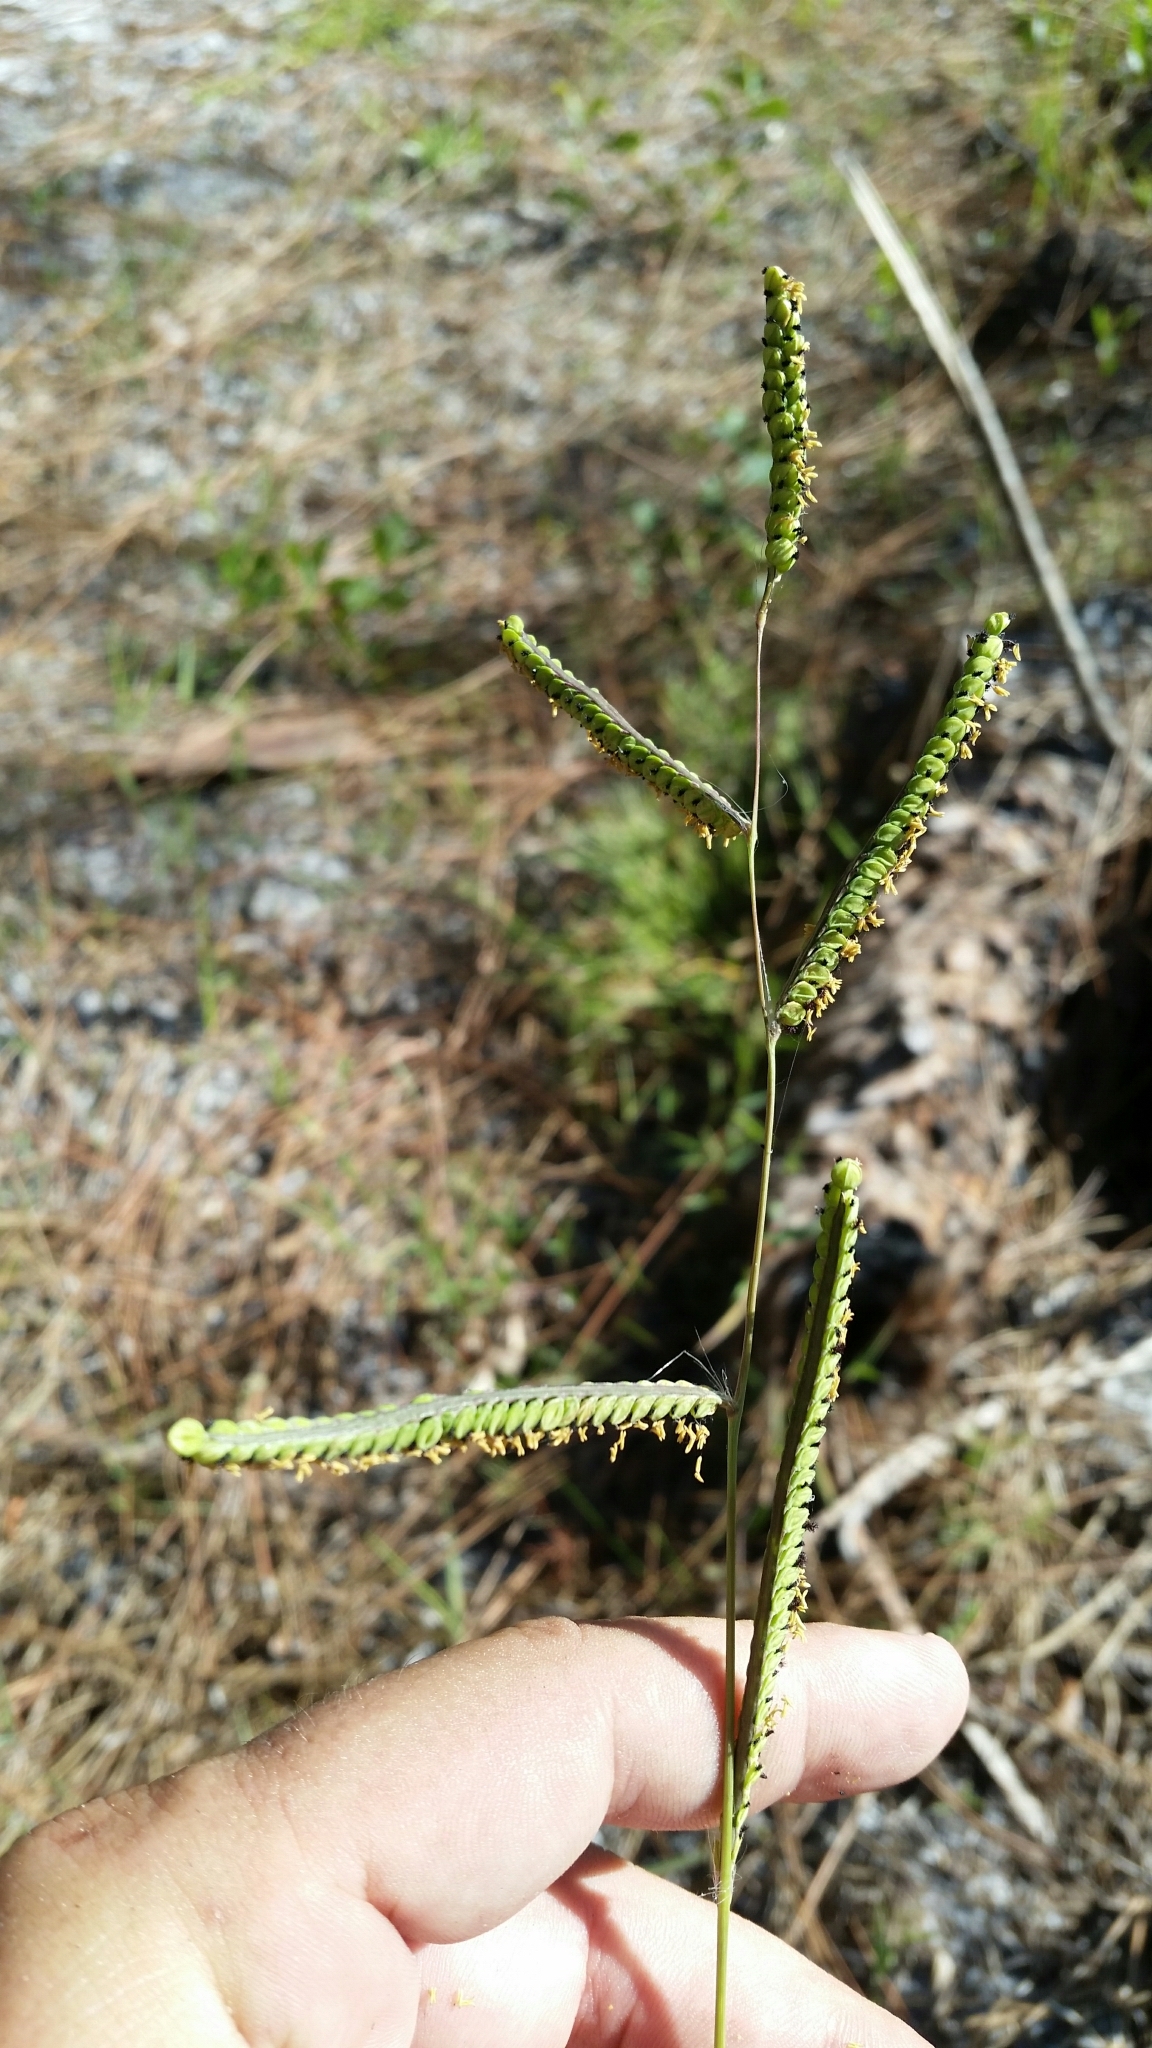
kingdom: Plantae
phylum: Tracheophyta
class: Liliopsida
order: Poales
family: Poaceae
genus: Paspalum
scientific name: Paspalum praecox
